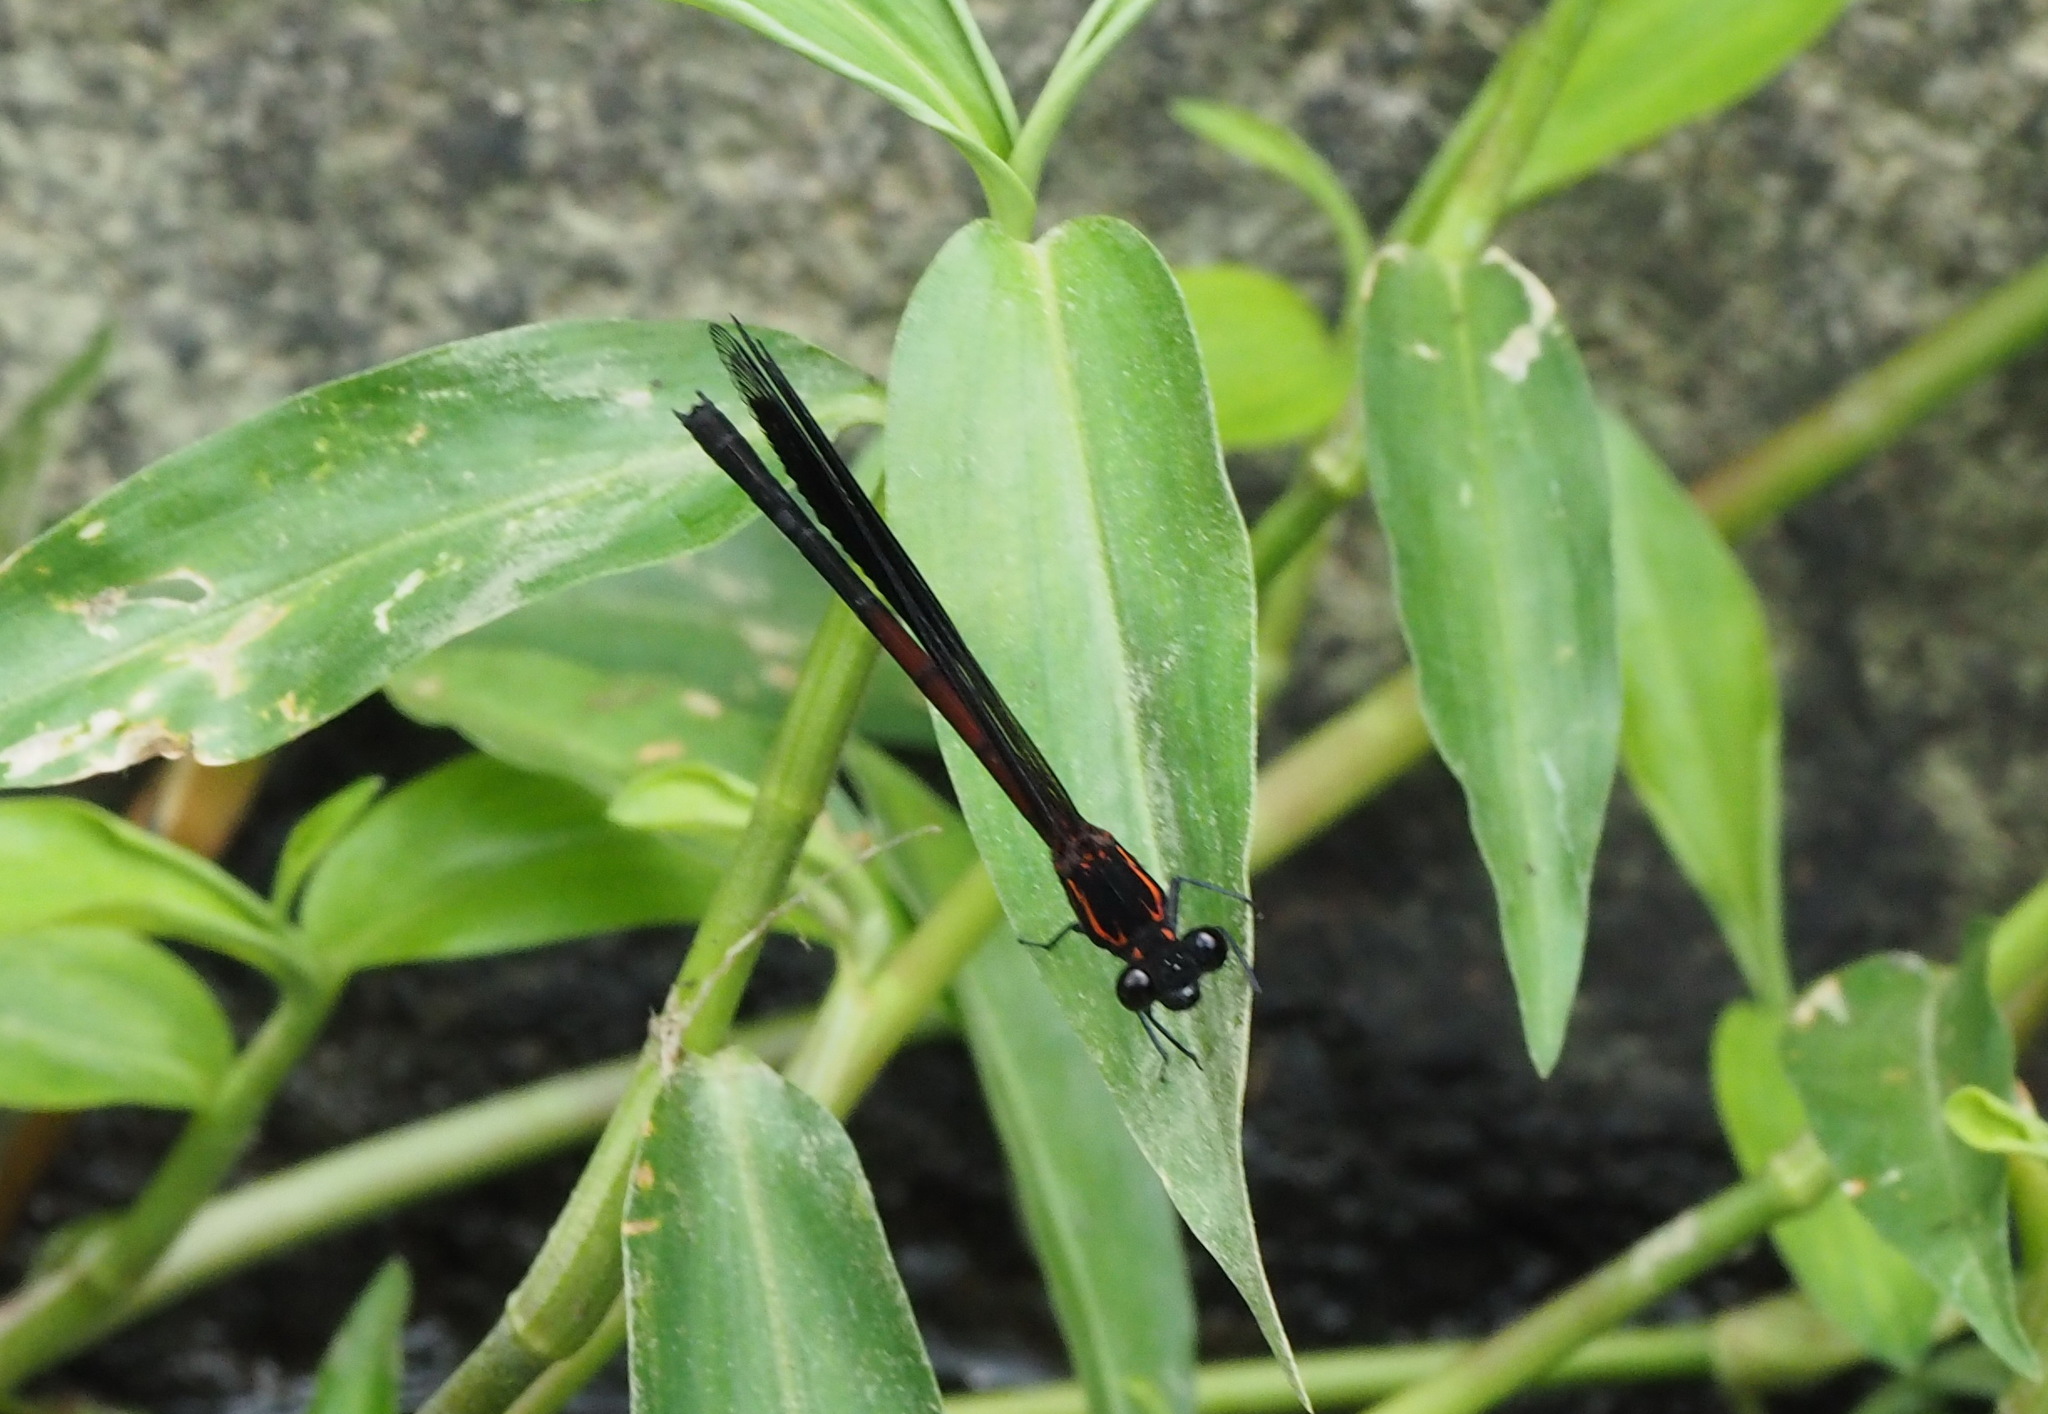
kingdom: Animalia
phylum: Arthropoda
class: Insecta
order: Odonata
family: Euphaeidae
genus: Euphaea
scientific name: Euphaea formosa
